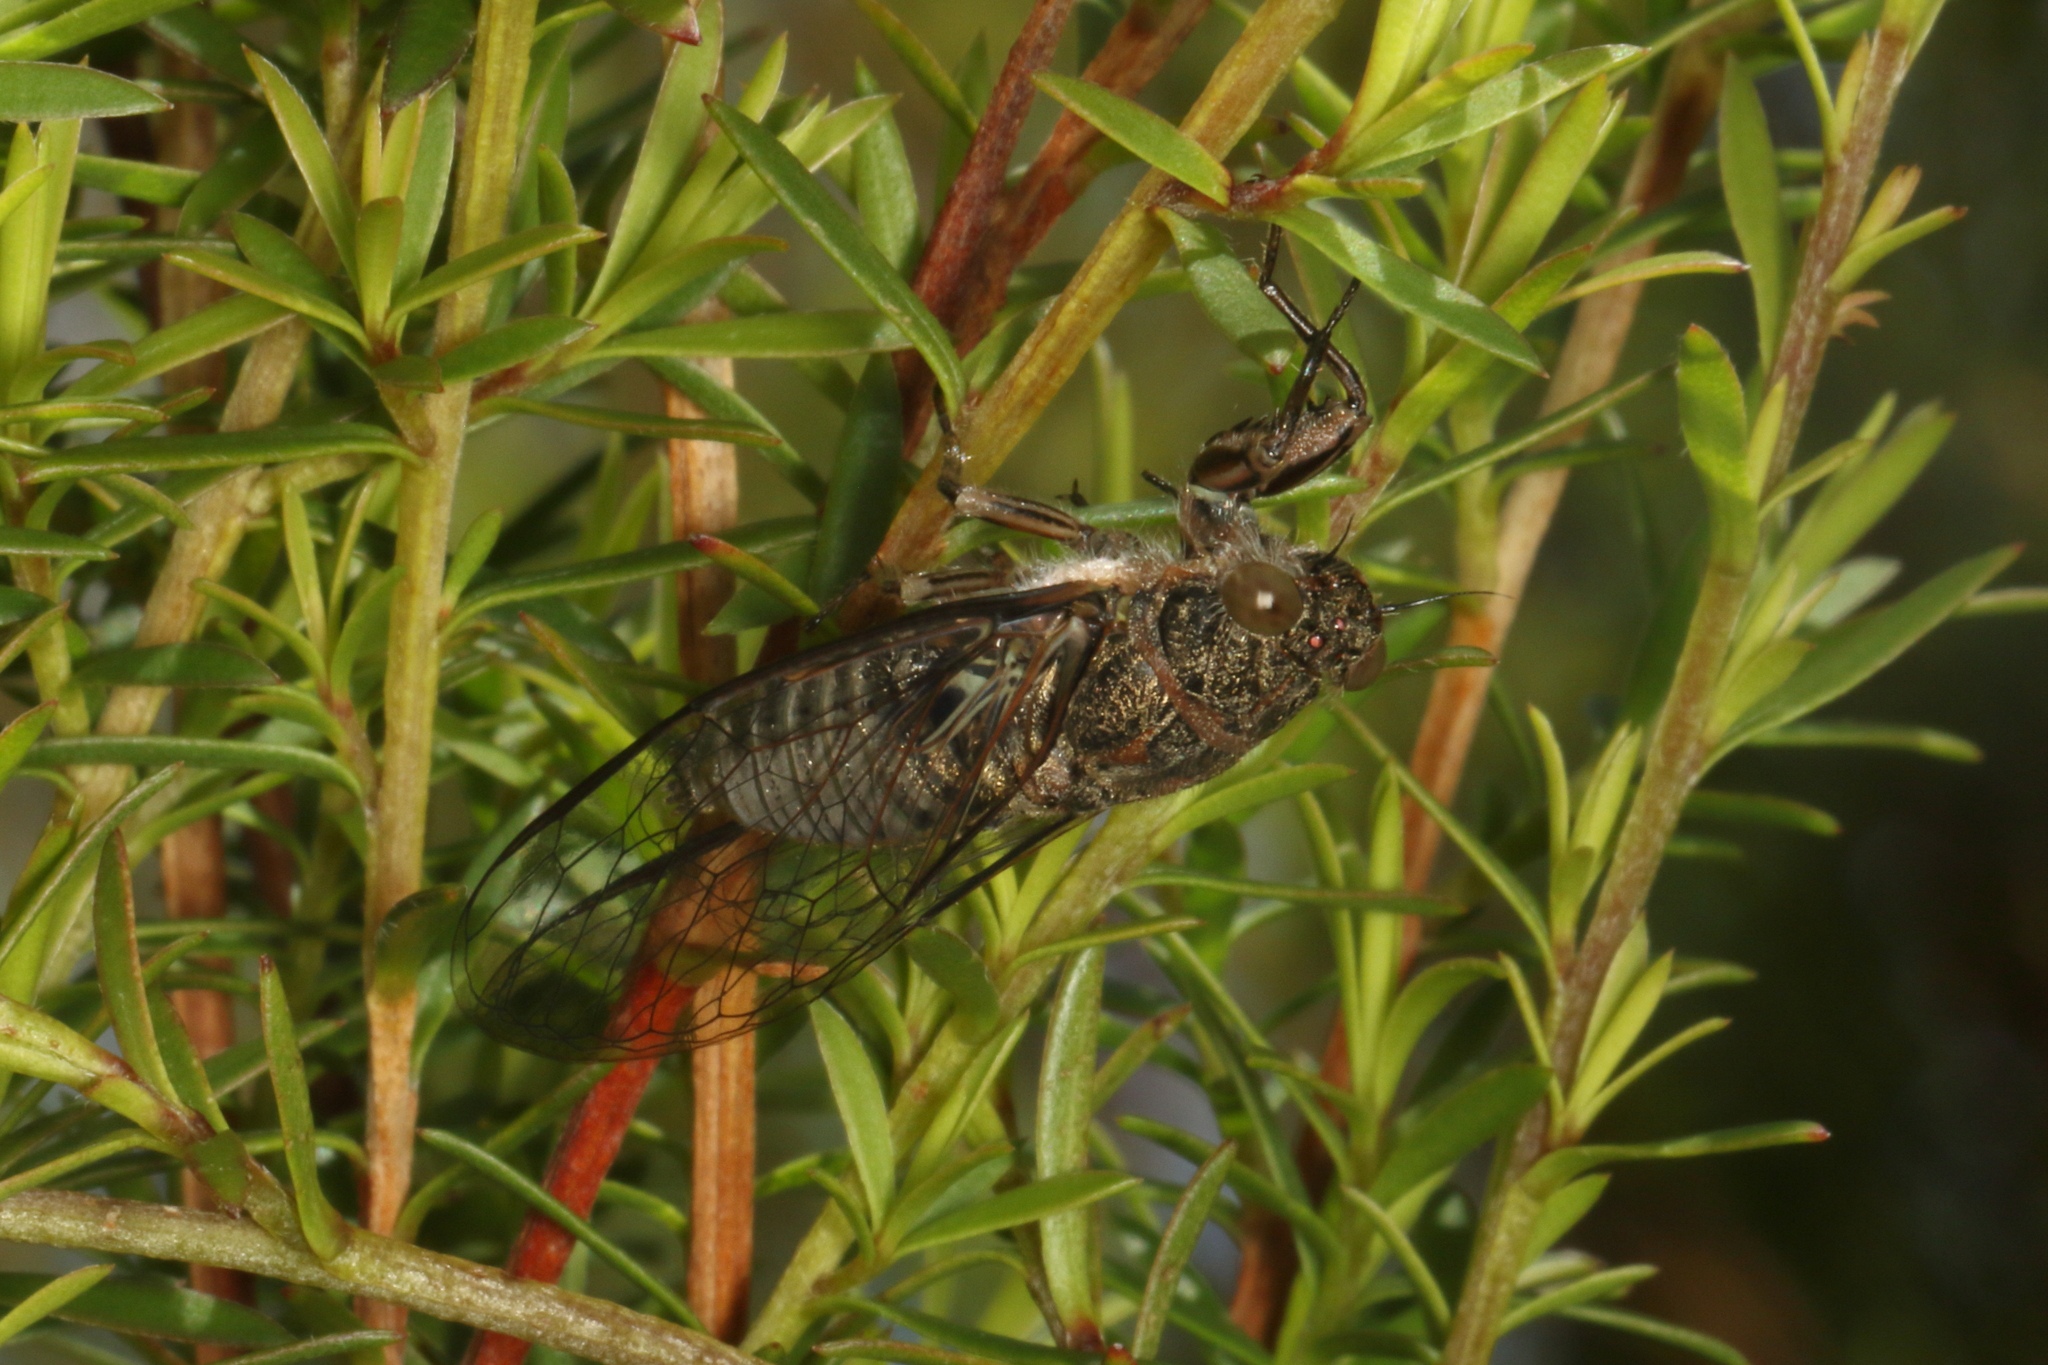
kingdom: Animalia
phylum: Arthropoda
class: Insecta
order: Hemiptera
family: Cicadidae
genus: Notopsalta
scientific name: Notopsalta sericea
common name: Clay bank cicada
